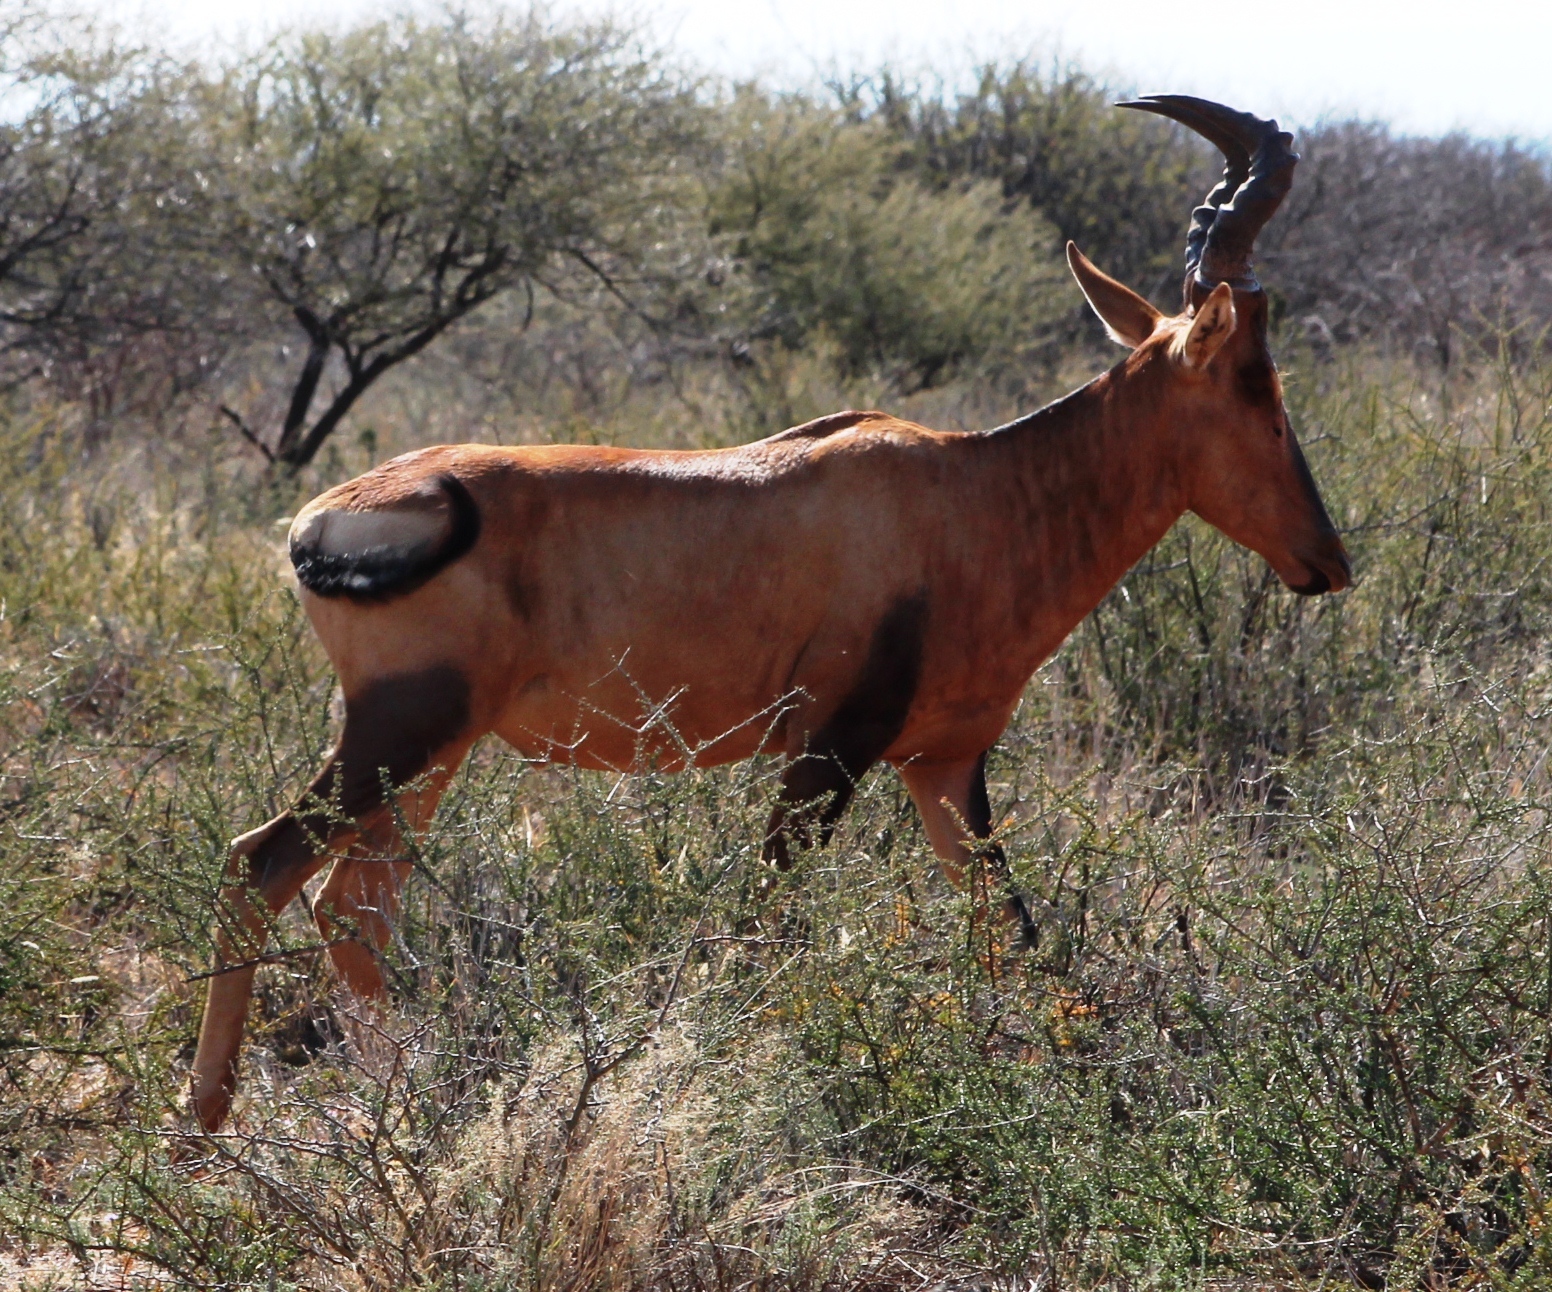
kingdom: Animalia
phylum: Chordata
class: Mammalia
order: Artiodactyla
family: Bovidae
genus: Alcelaphus
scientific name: Alcelaphus caama
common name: Red hartebeest
